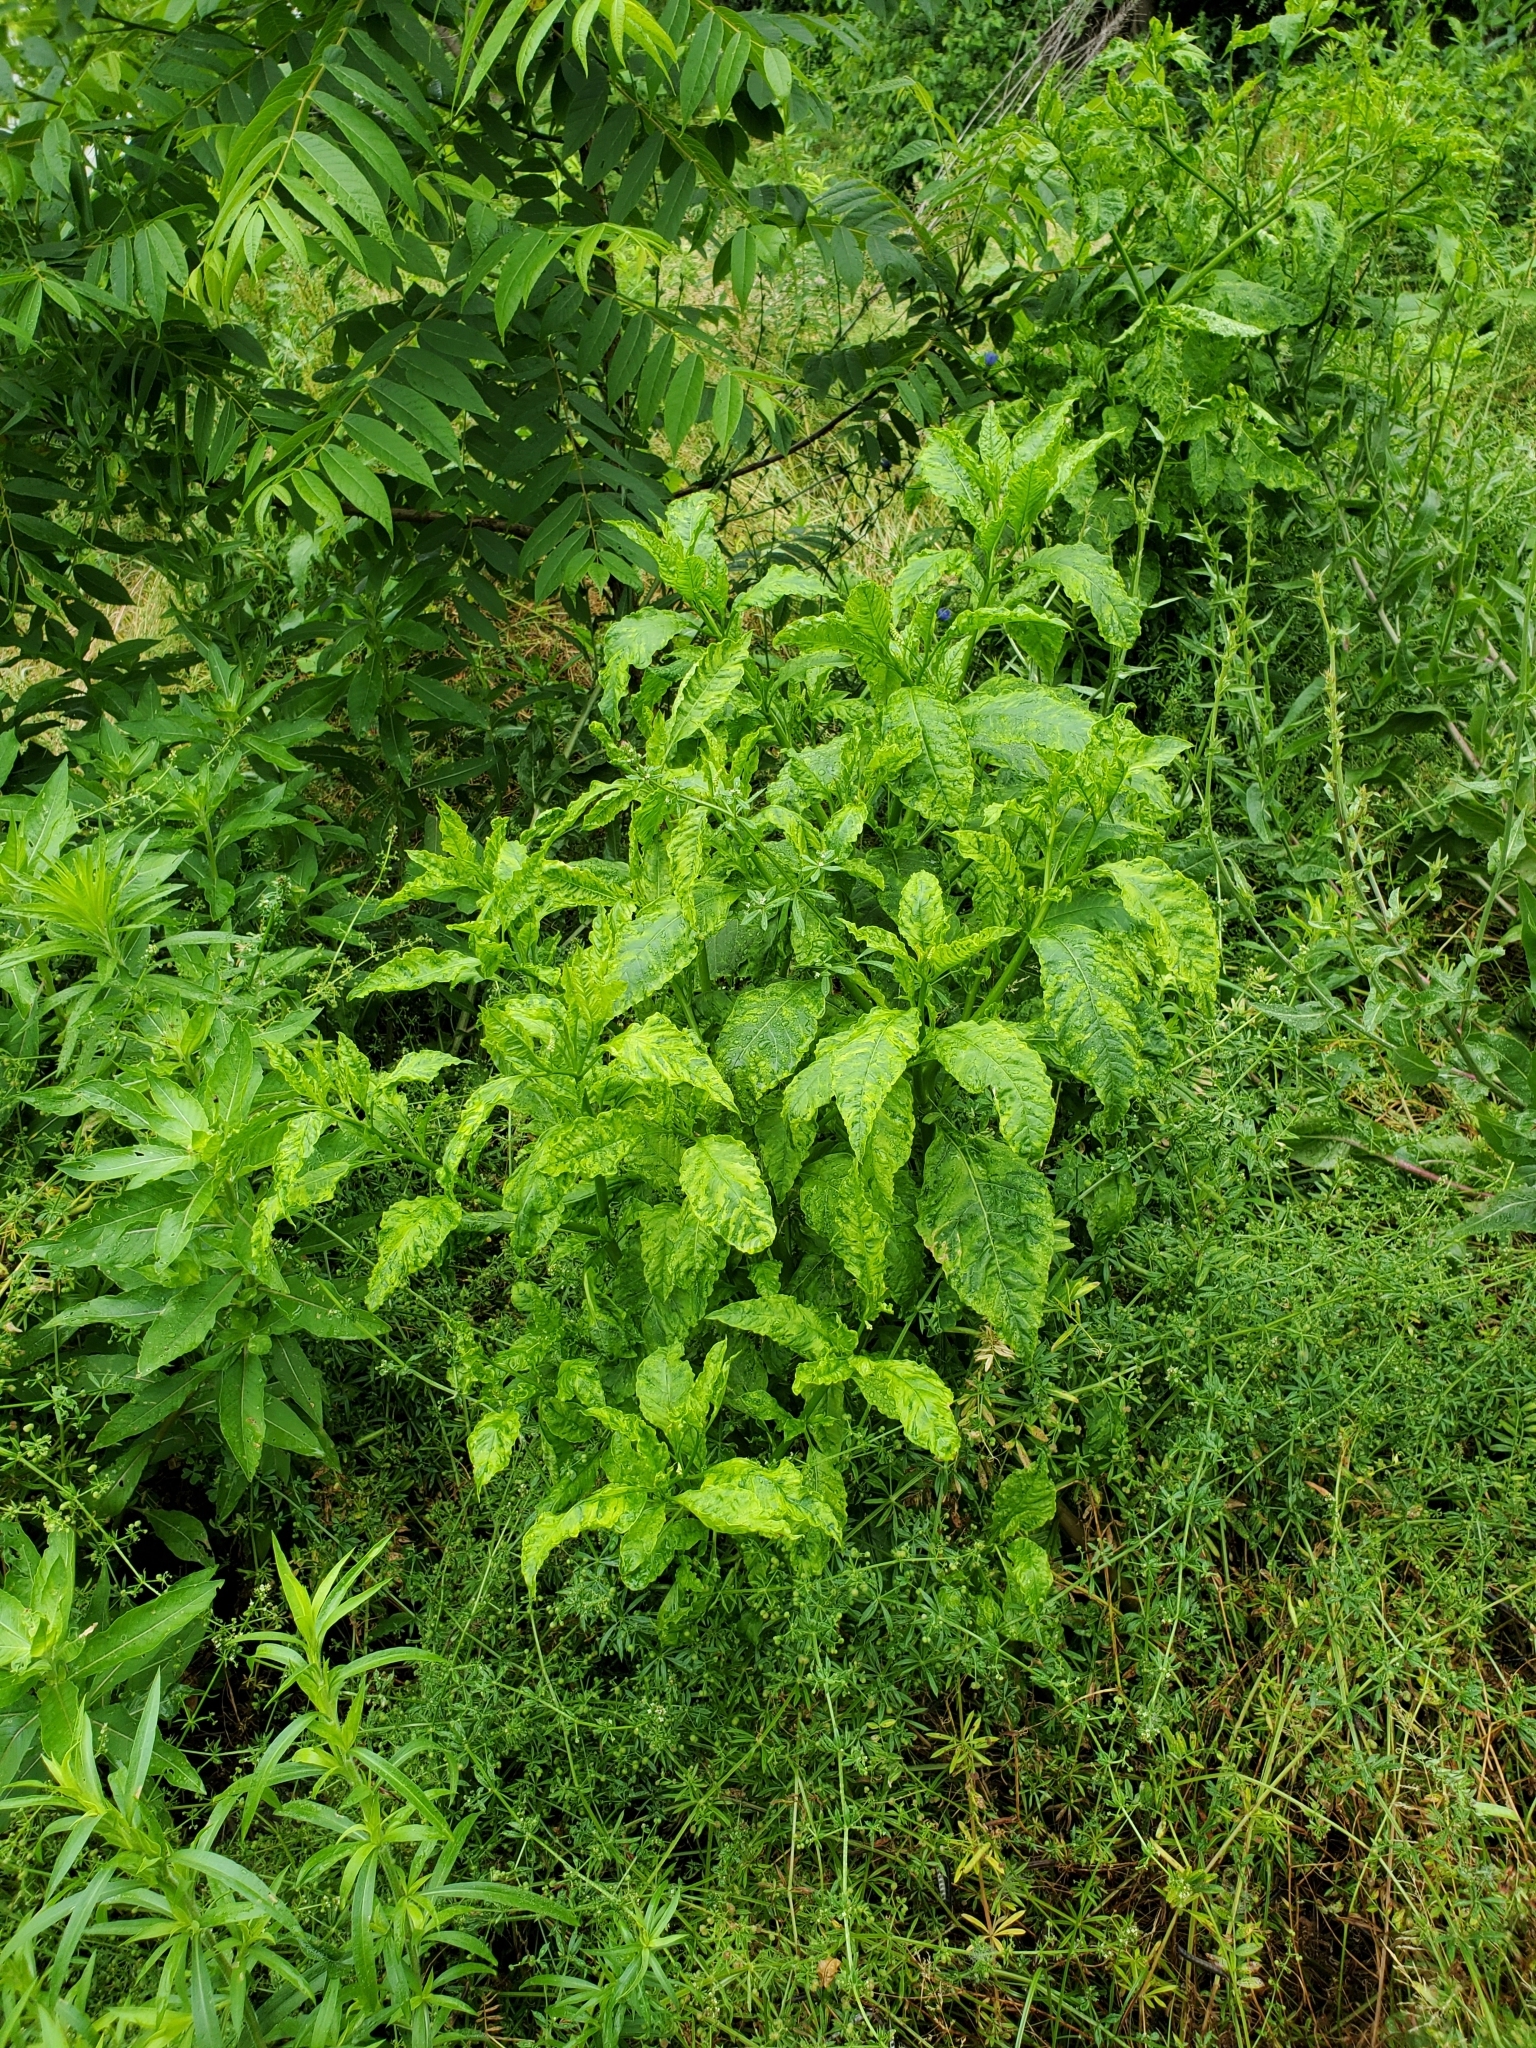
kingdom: Plantae
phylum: Tracheophyta
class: Magnoliopsida
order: Caryophyllales
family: Phytolaccaceae
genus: Phytolacca
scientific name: Phytolacca americana
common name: American pokeweed
